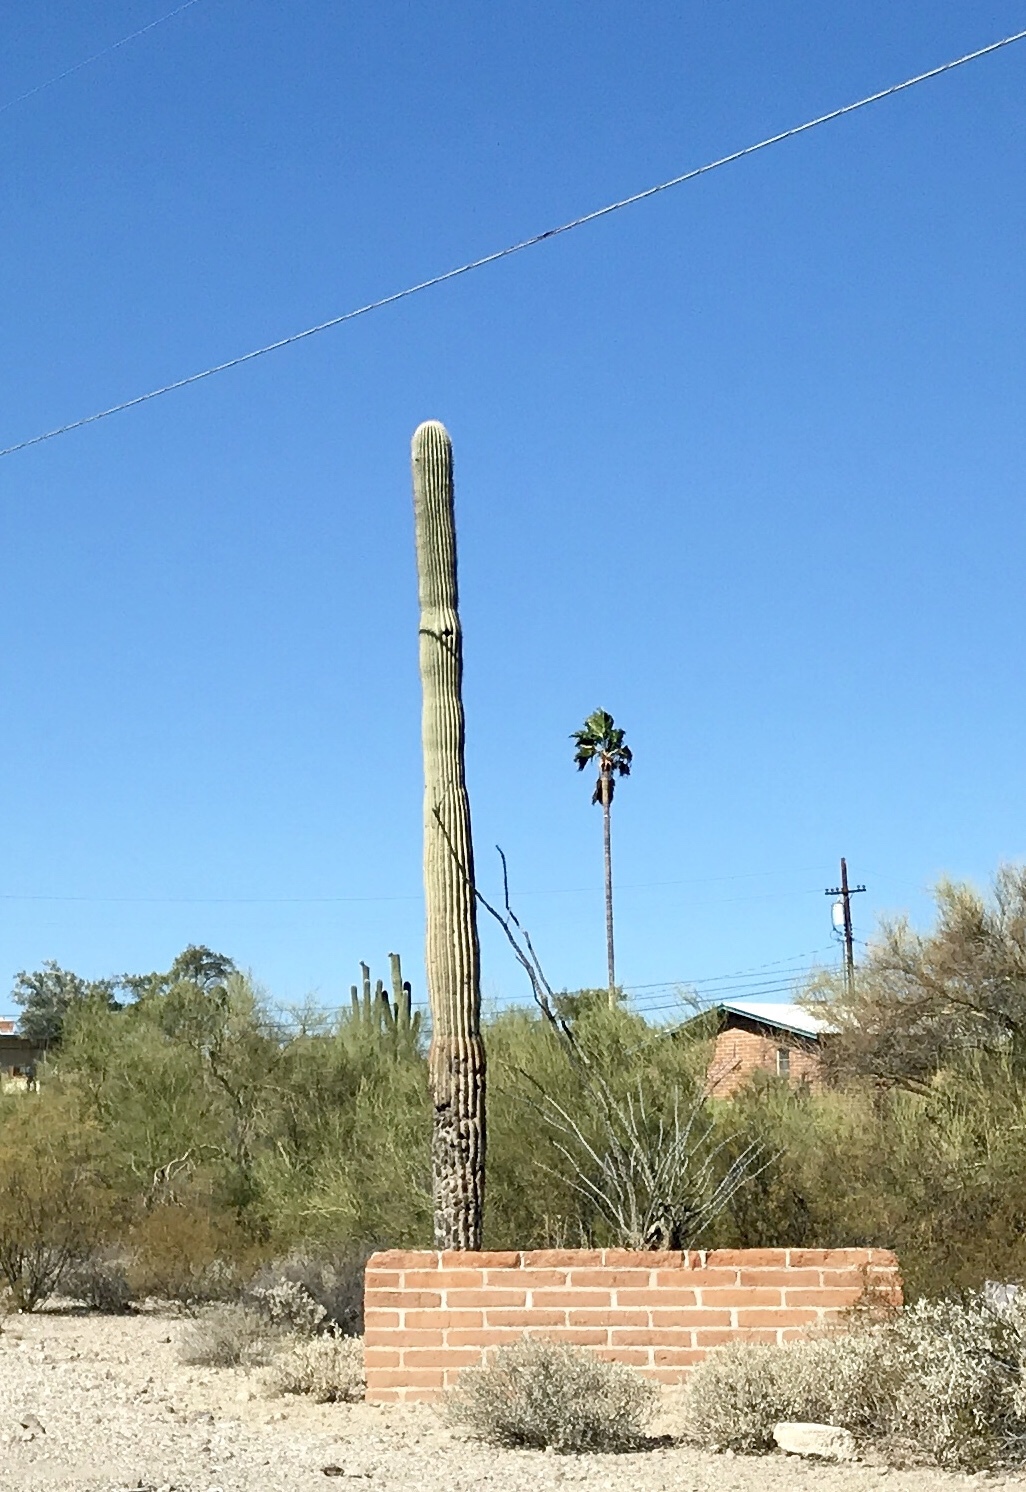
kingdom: Plantae
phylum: Tracheophyta
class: Magnoliopsida
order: Caryophyllales
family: Cactaceae
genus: Carnegiea
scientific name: Carnegiea gigantea
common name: Saguaro
